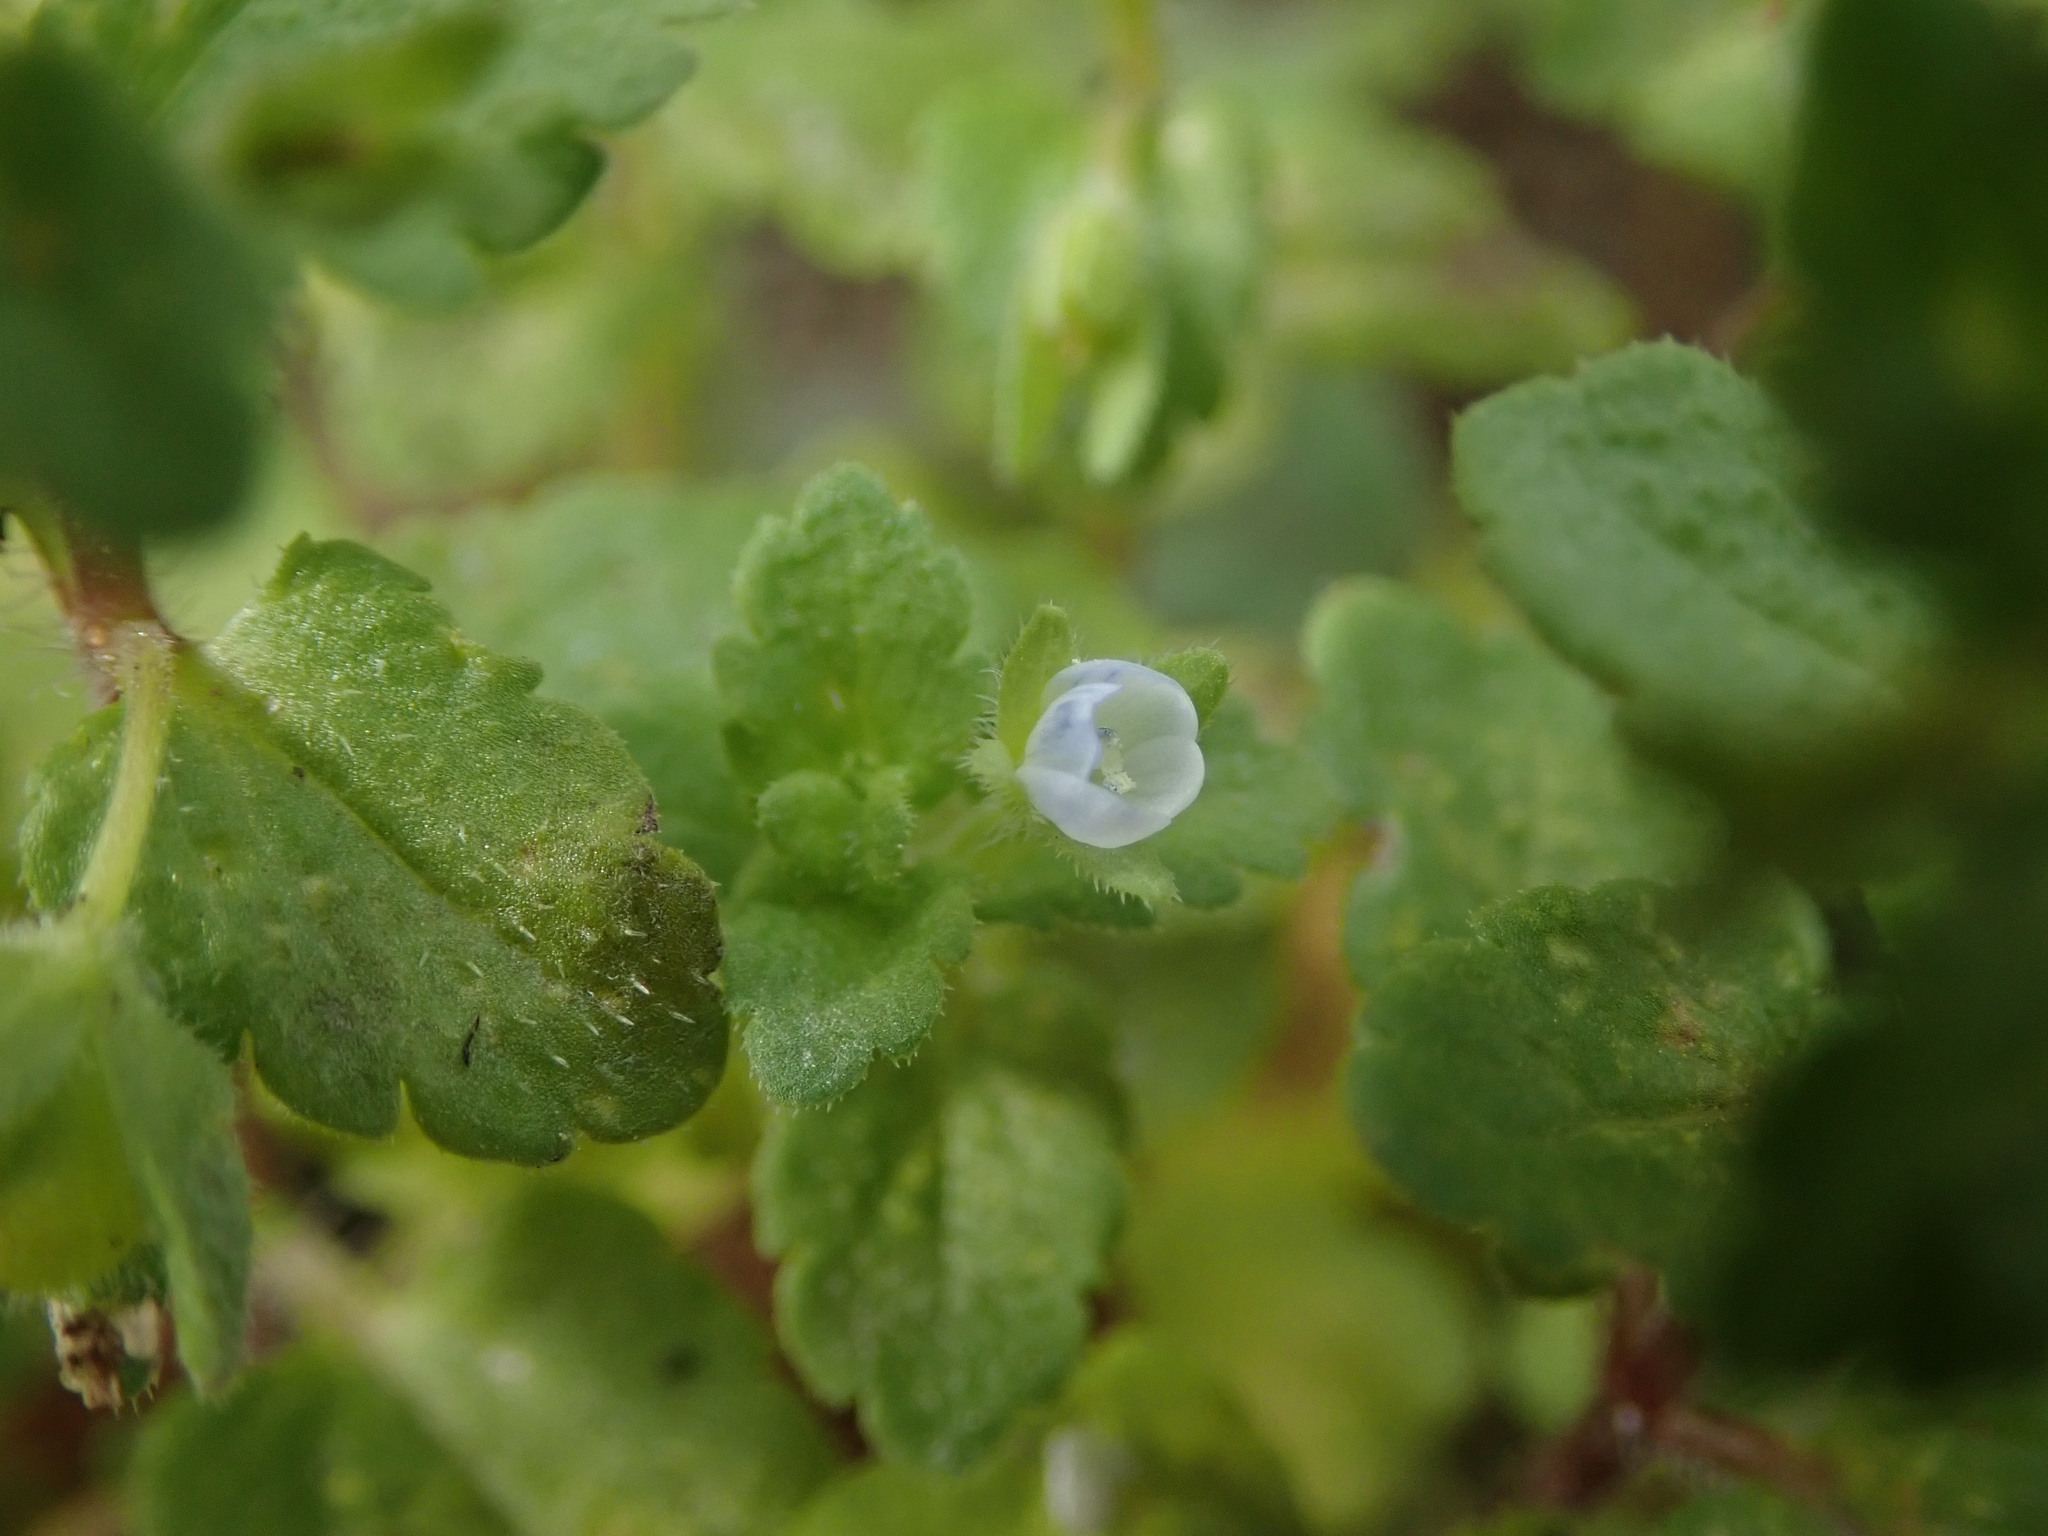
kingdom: Plantae
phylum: Tracheophyta
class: Magnoliopsida
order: Lamiales
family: Plantaginaceae
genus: Veronica
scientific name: Veronica agrestis
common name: Green field-speedwell
